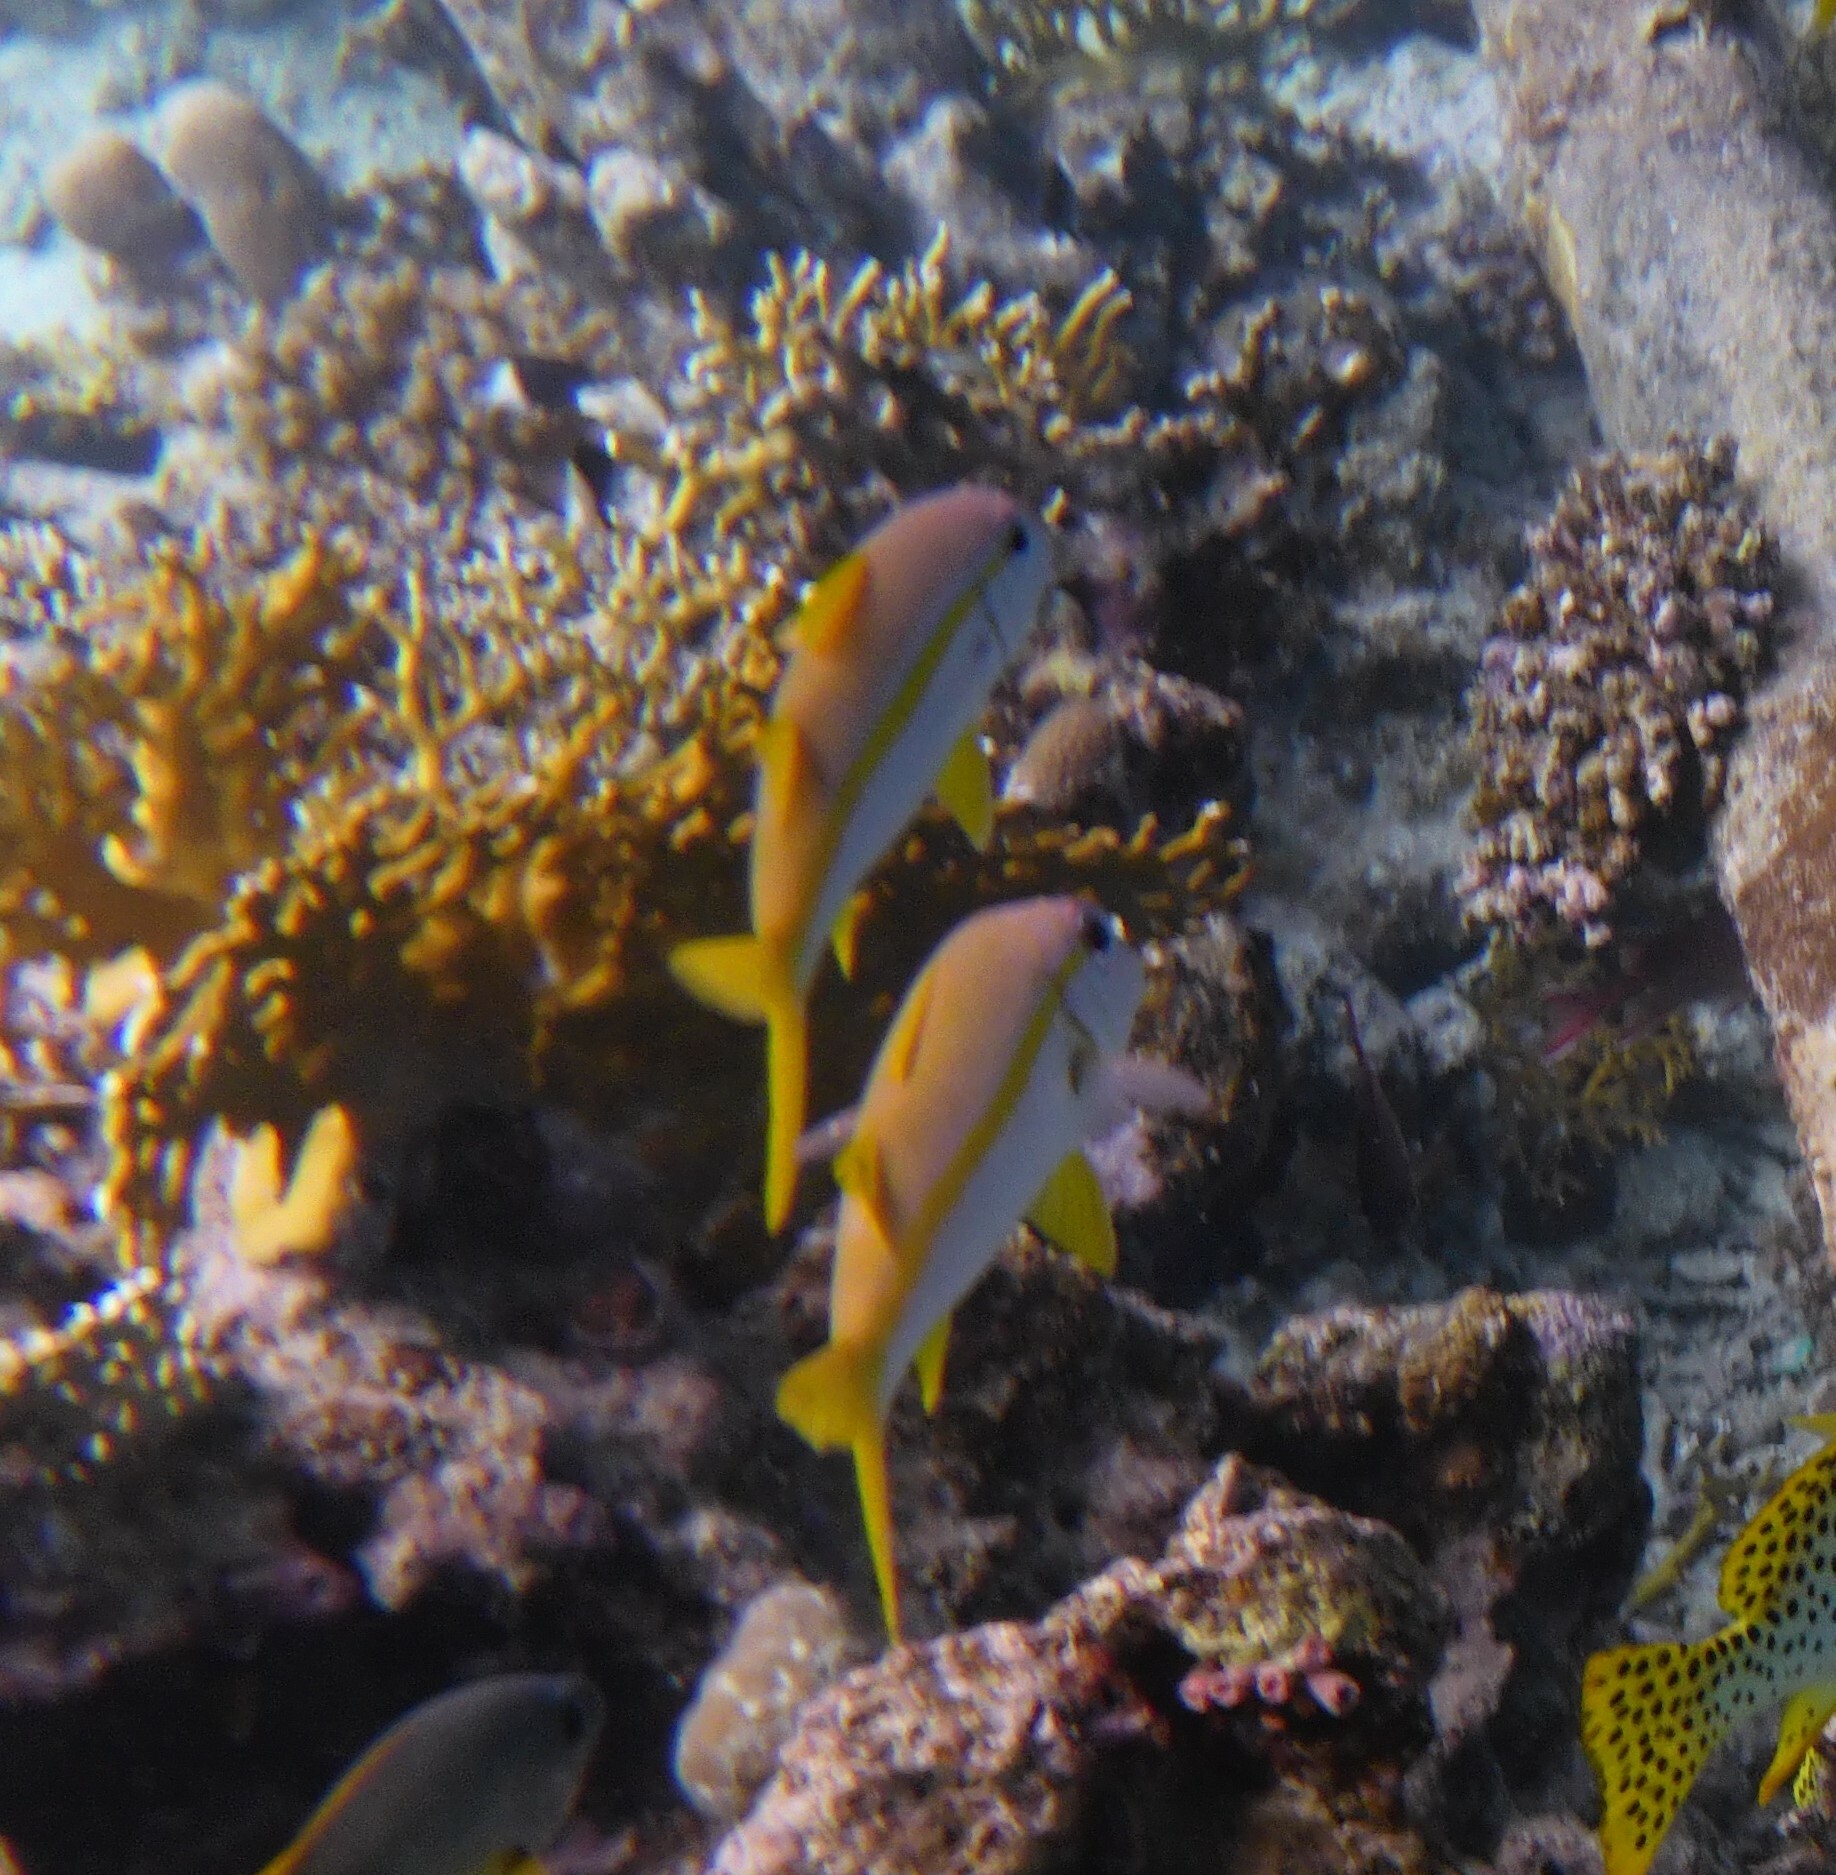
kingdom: Animalia
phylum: Chordata
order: Perciformes
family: Mullidae
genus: Mulloidichthys
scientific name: Mulloidichthys vanicolensis
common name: Yellowfin goatfish
